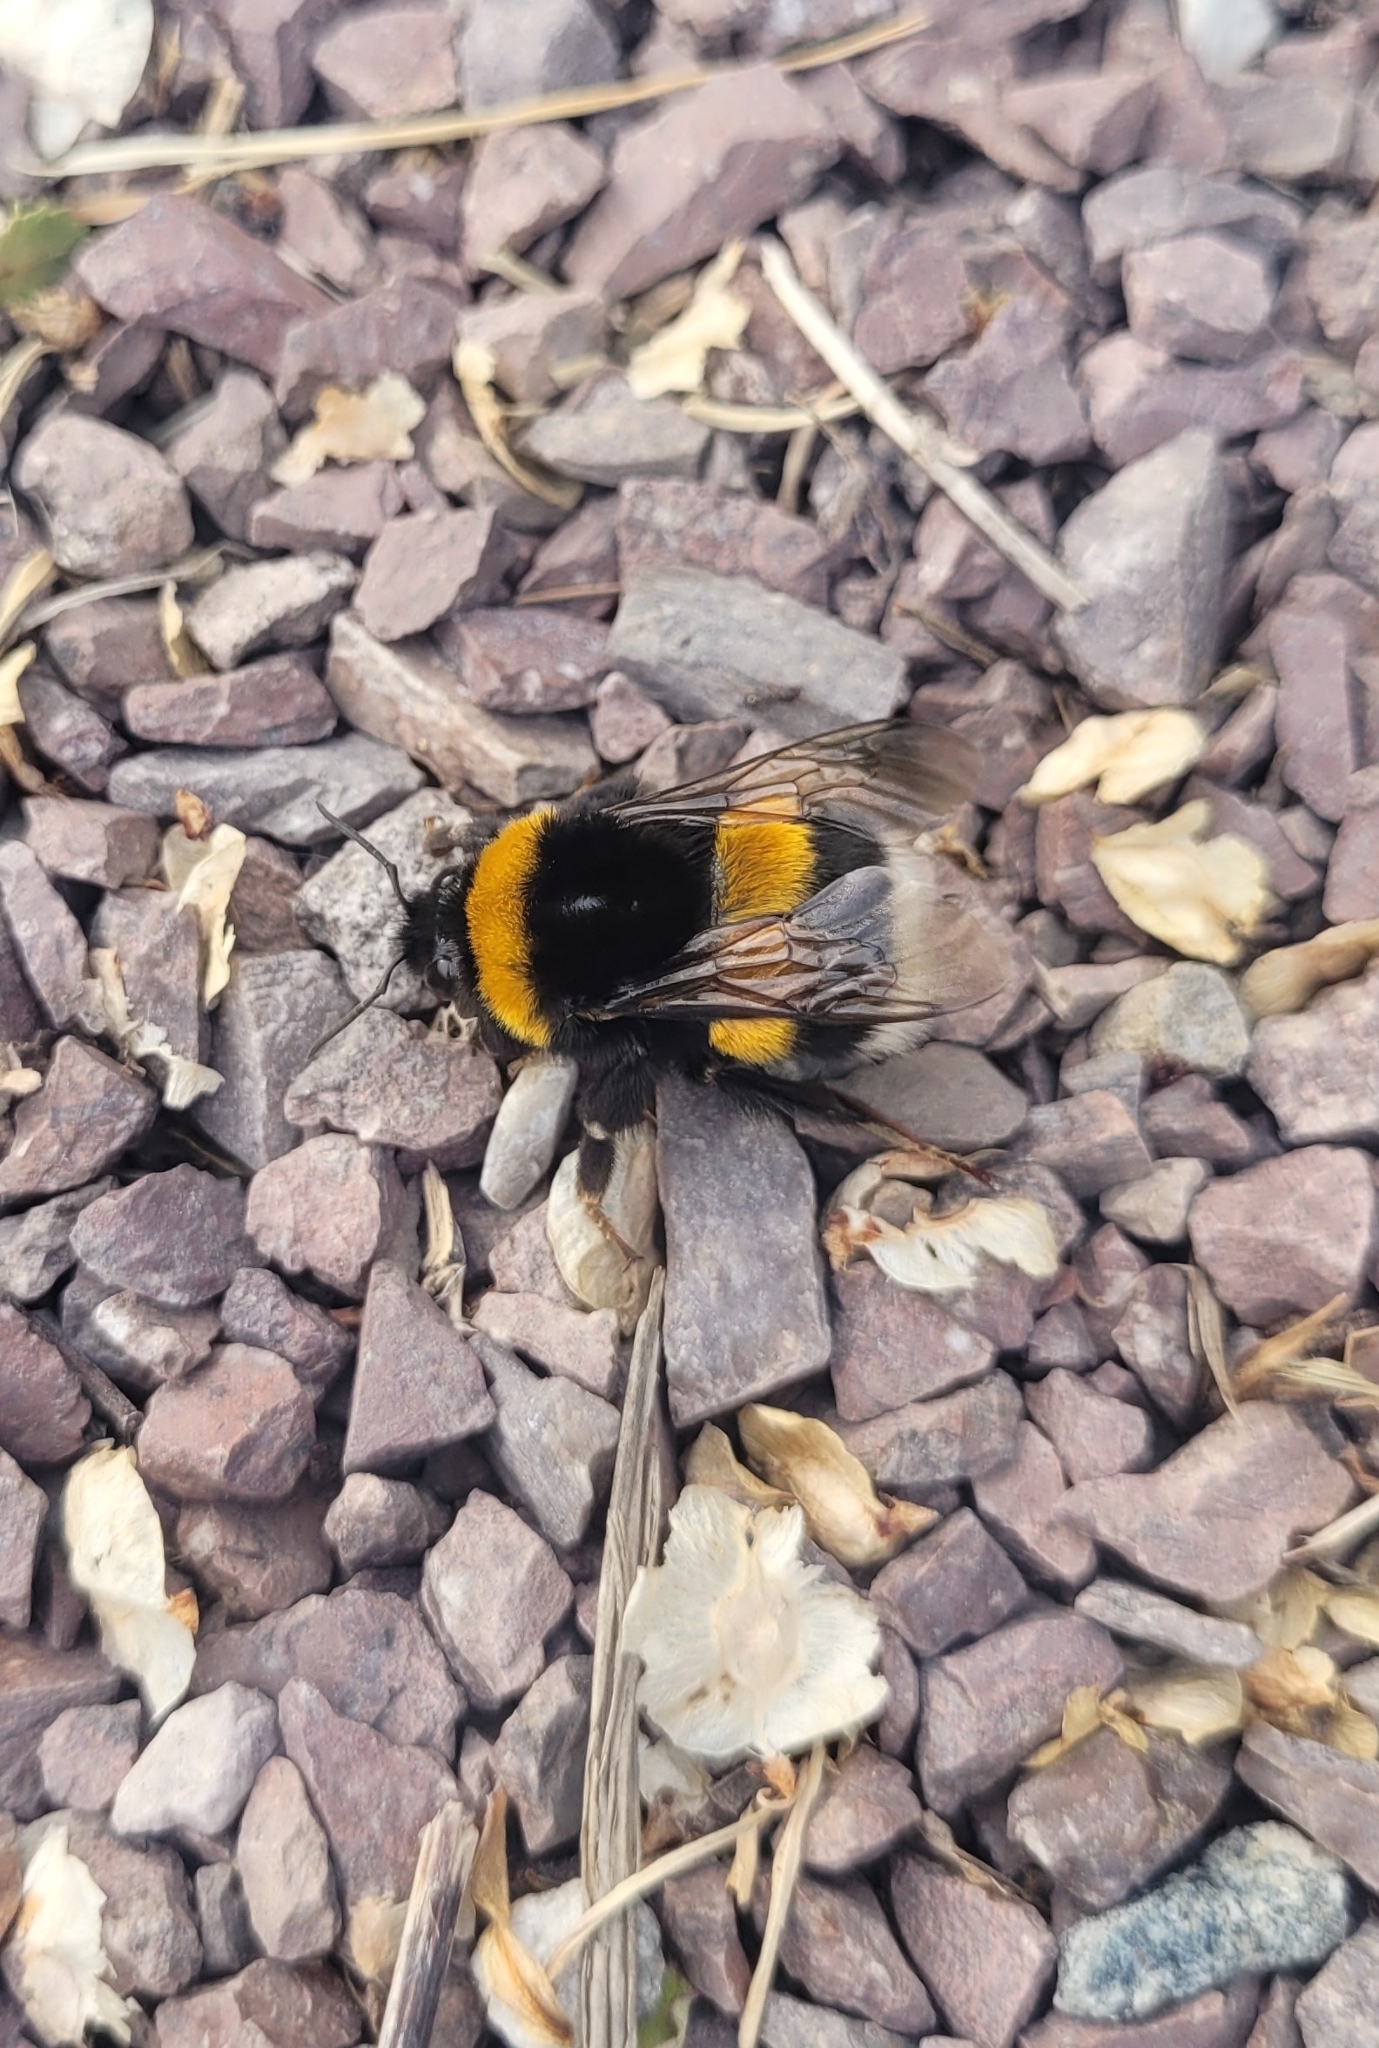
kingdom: Animalia
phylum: Arthropoda
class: Insecta
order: Hymenoptera
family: Apidae
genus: Bombus
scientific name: Bombus
